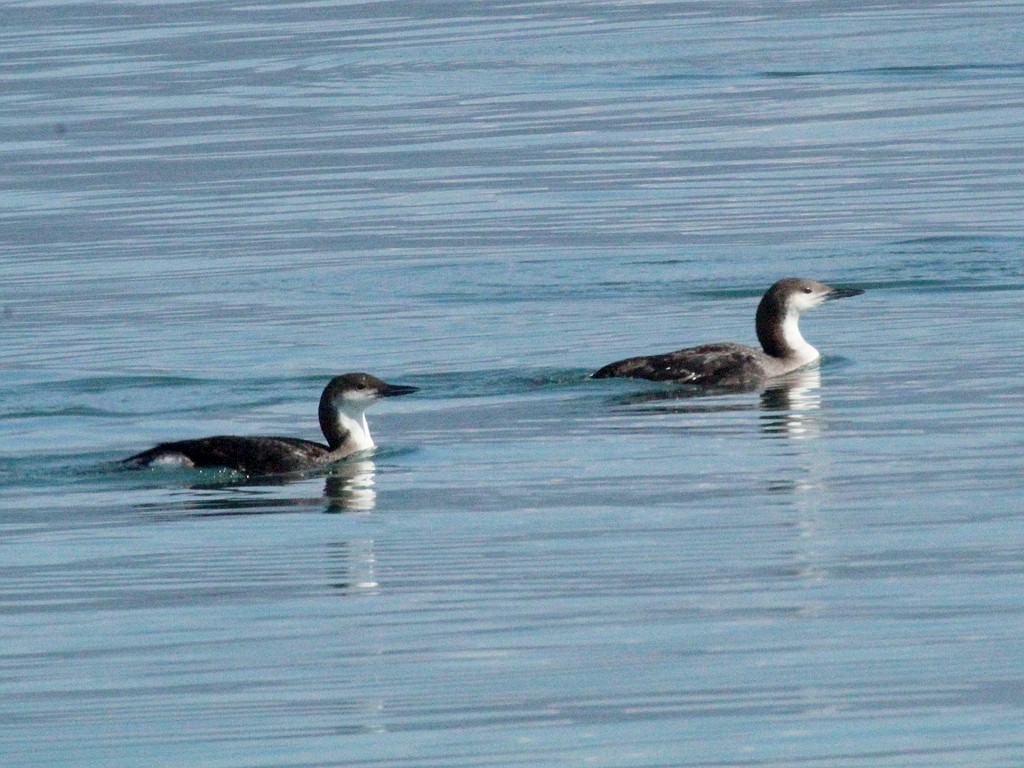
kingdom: Animalia
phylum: Chordata
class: Aves
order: Gaviiformes
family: Gaviidae
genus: Gavia
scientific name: Gavia arctica
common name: Black-throated loon
